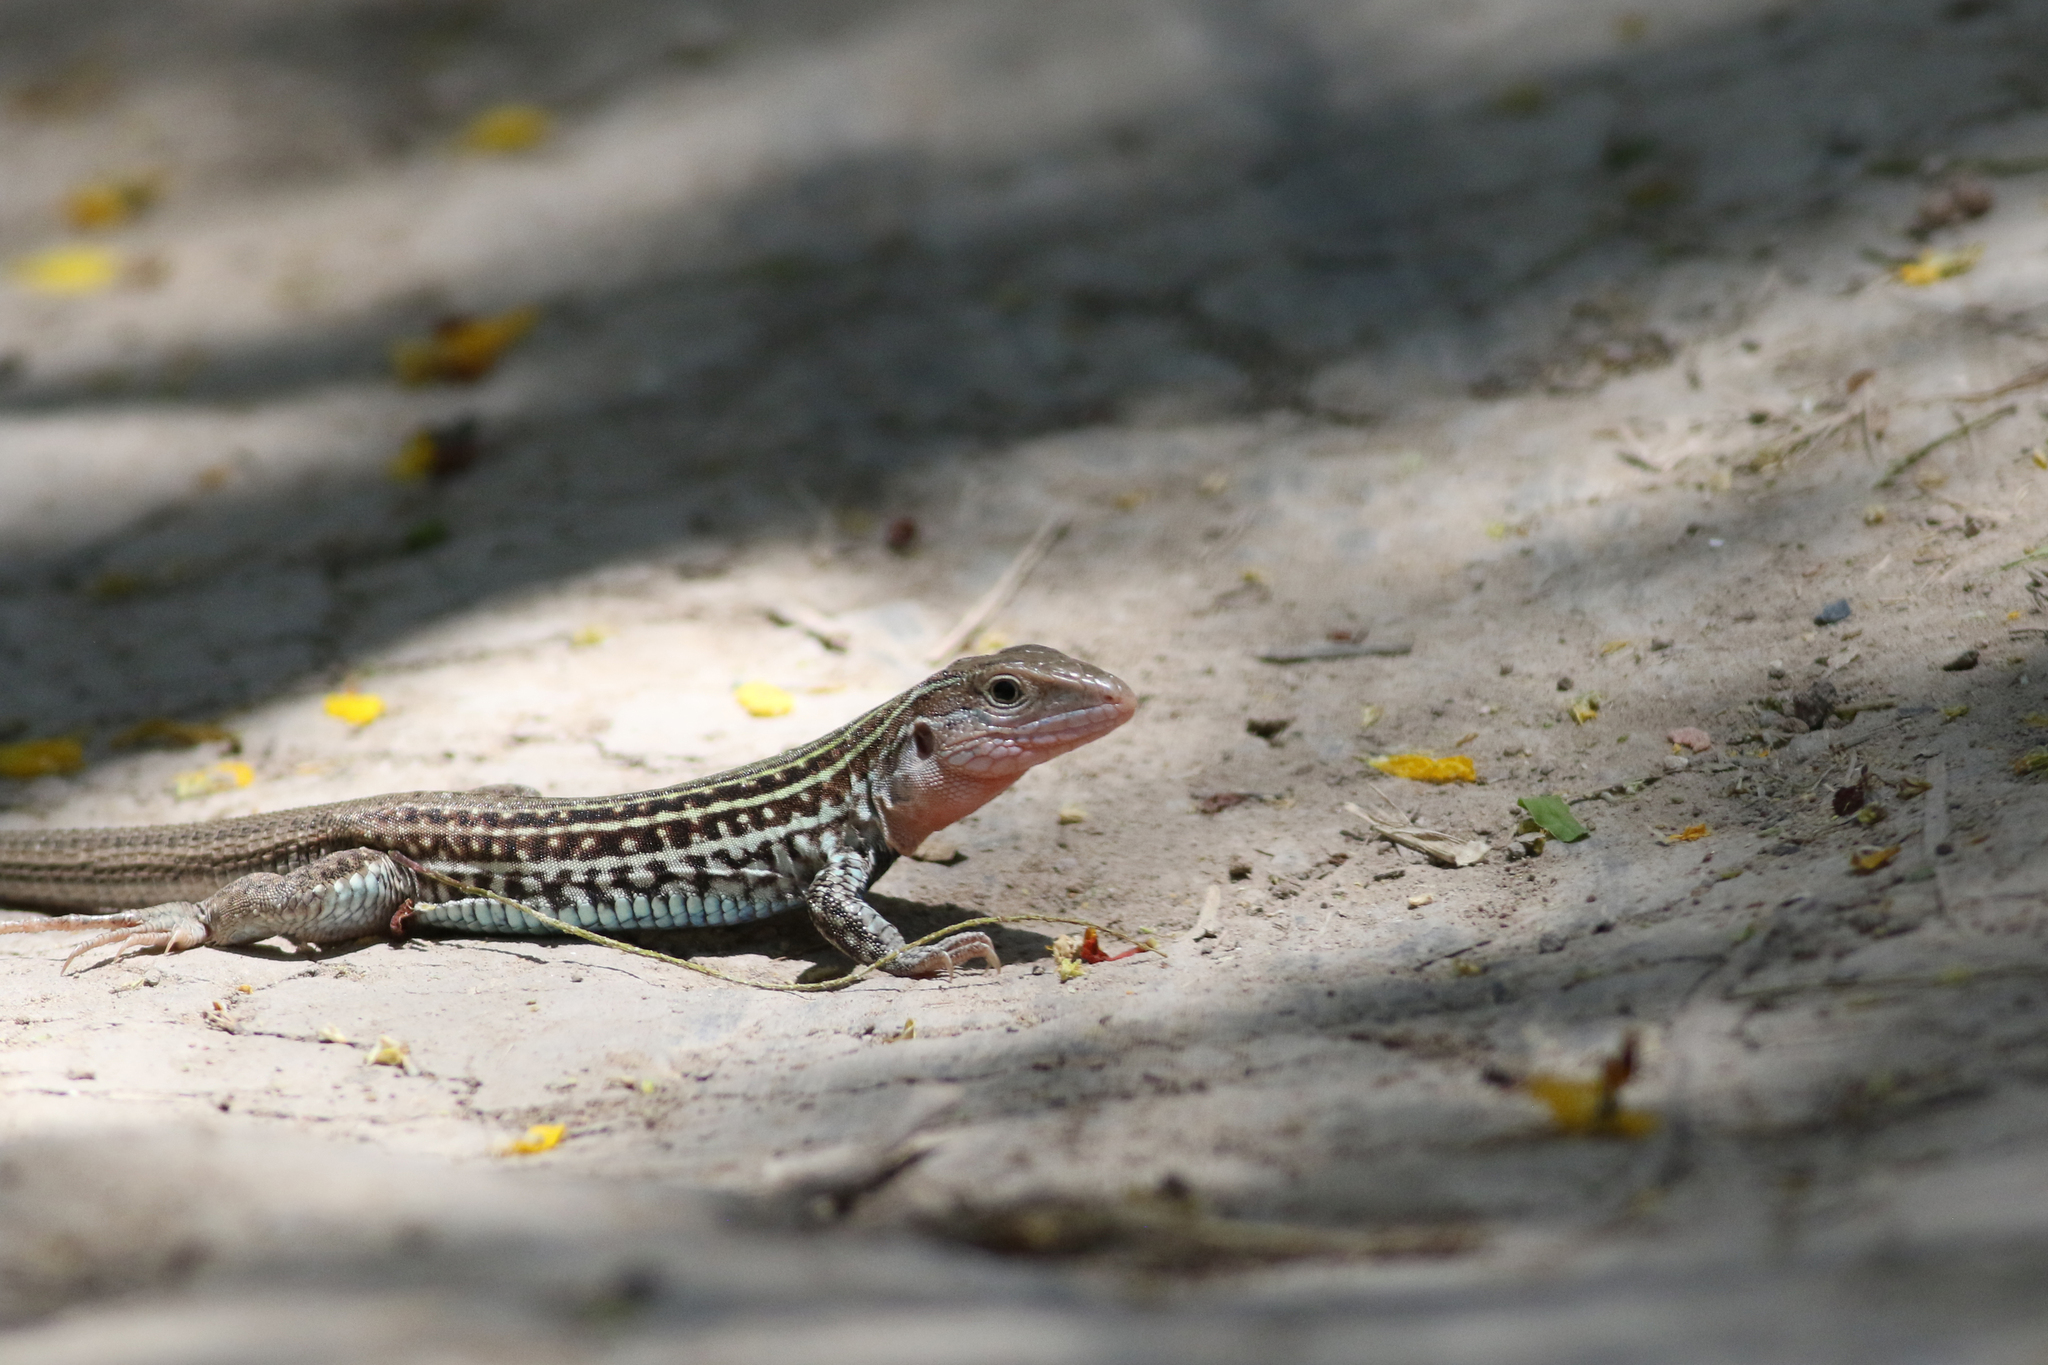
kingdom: Animalia
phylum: Chordata
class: Squamata
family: Teiidae
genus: Aspidoscelis
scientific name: Aspidoscelis gularis
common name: Eastern spotted whiptail
